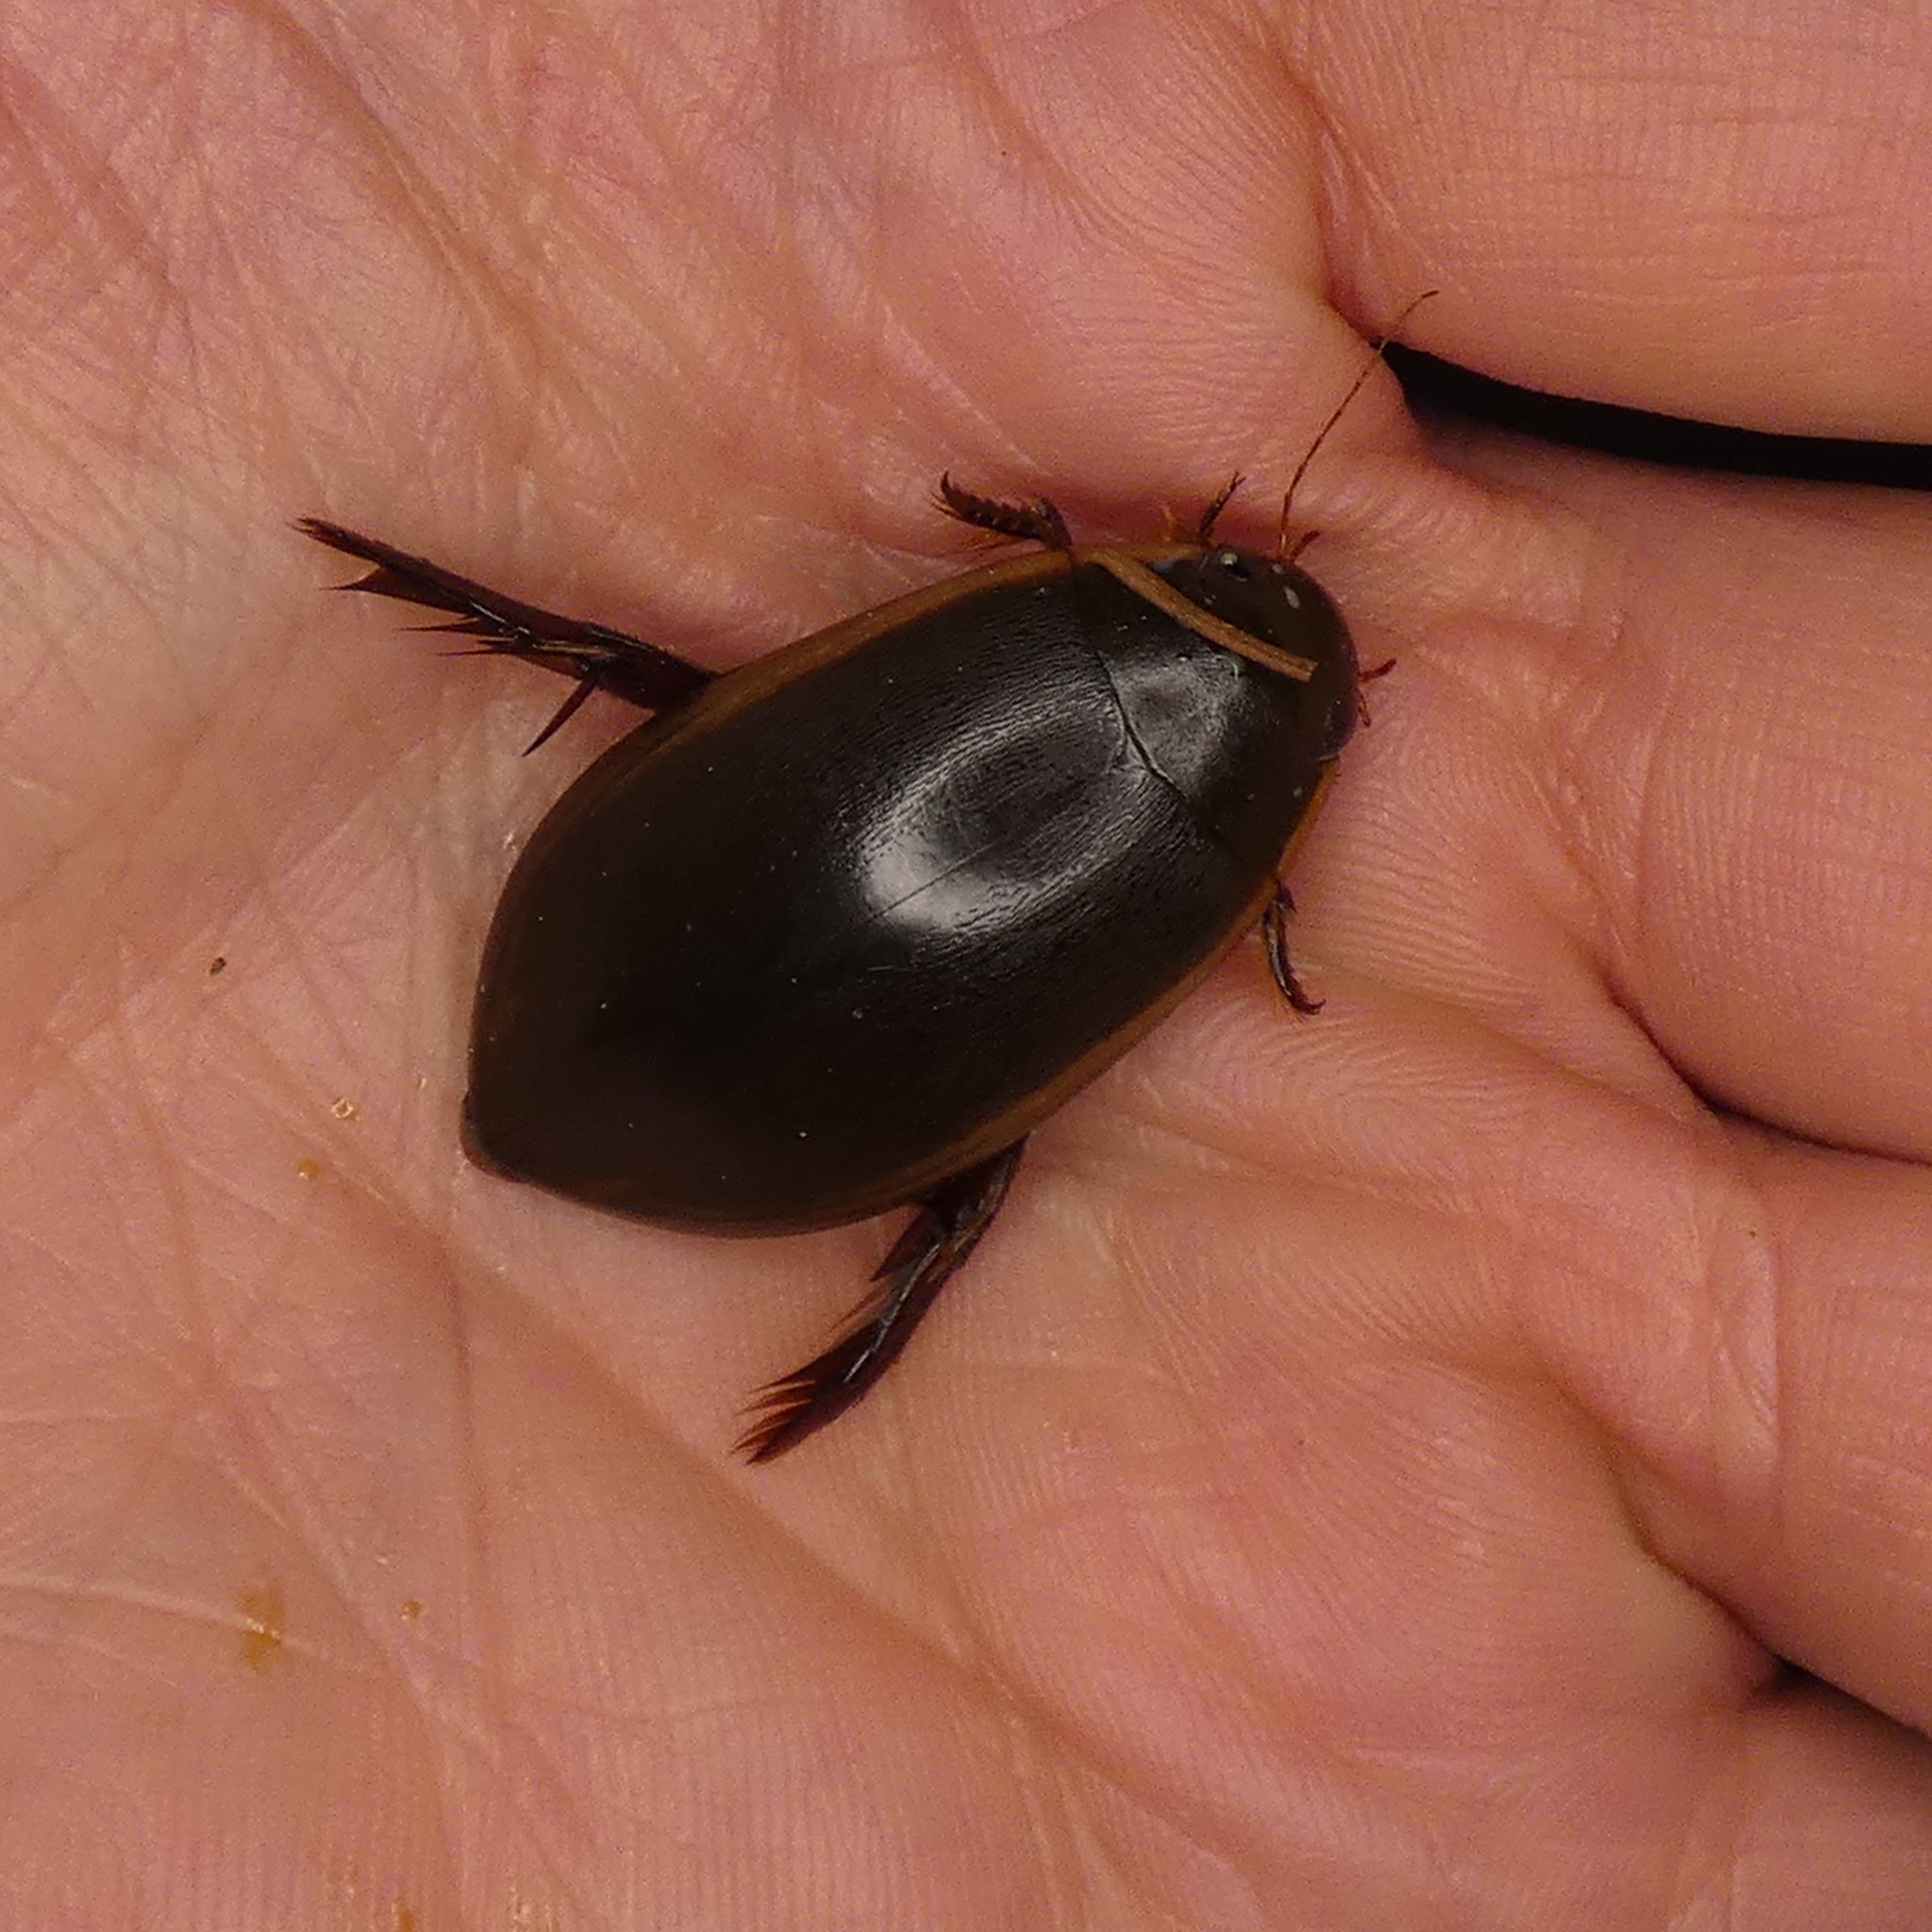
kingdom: Animalia
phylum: Arthropoda
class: Insecta
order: Coleoptera
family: Dytiscidae
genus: Cybister
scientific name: Cybister fimbriolatus
